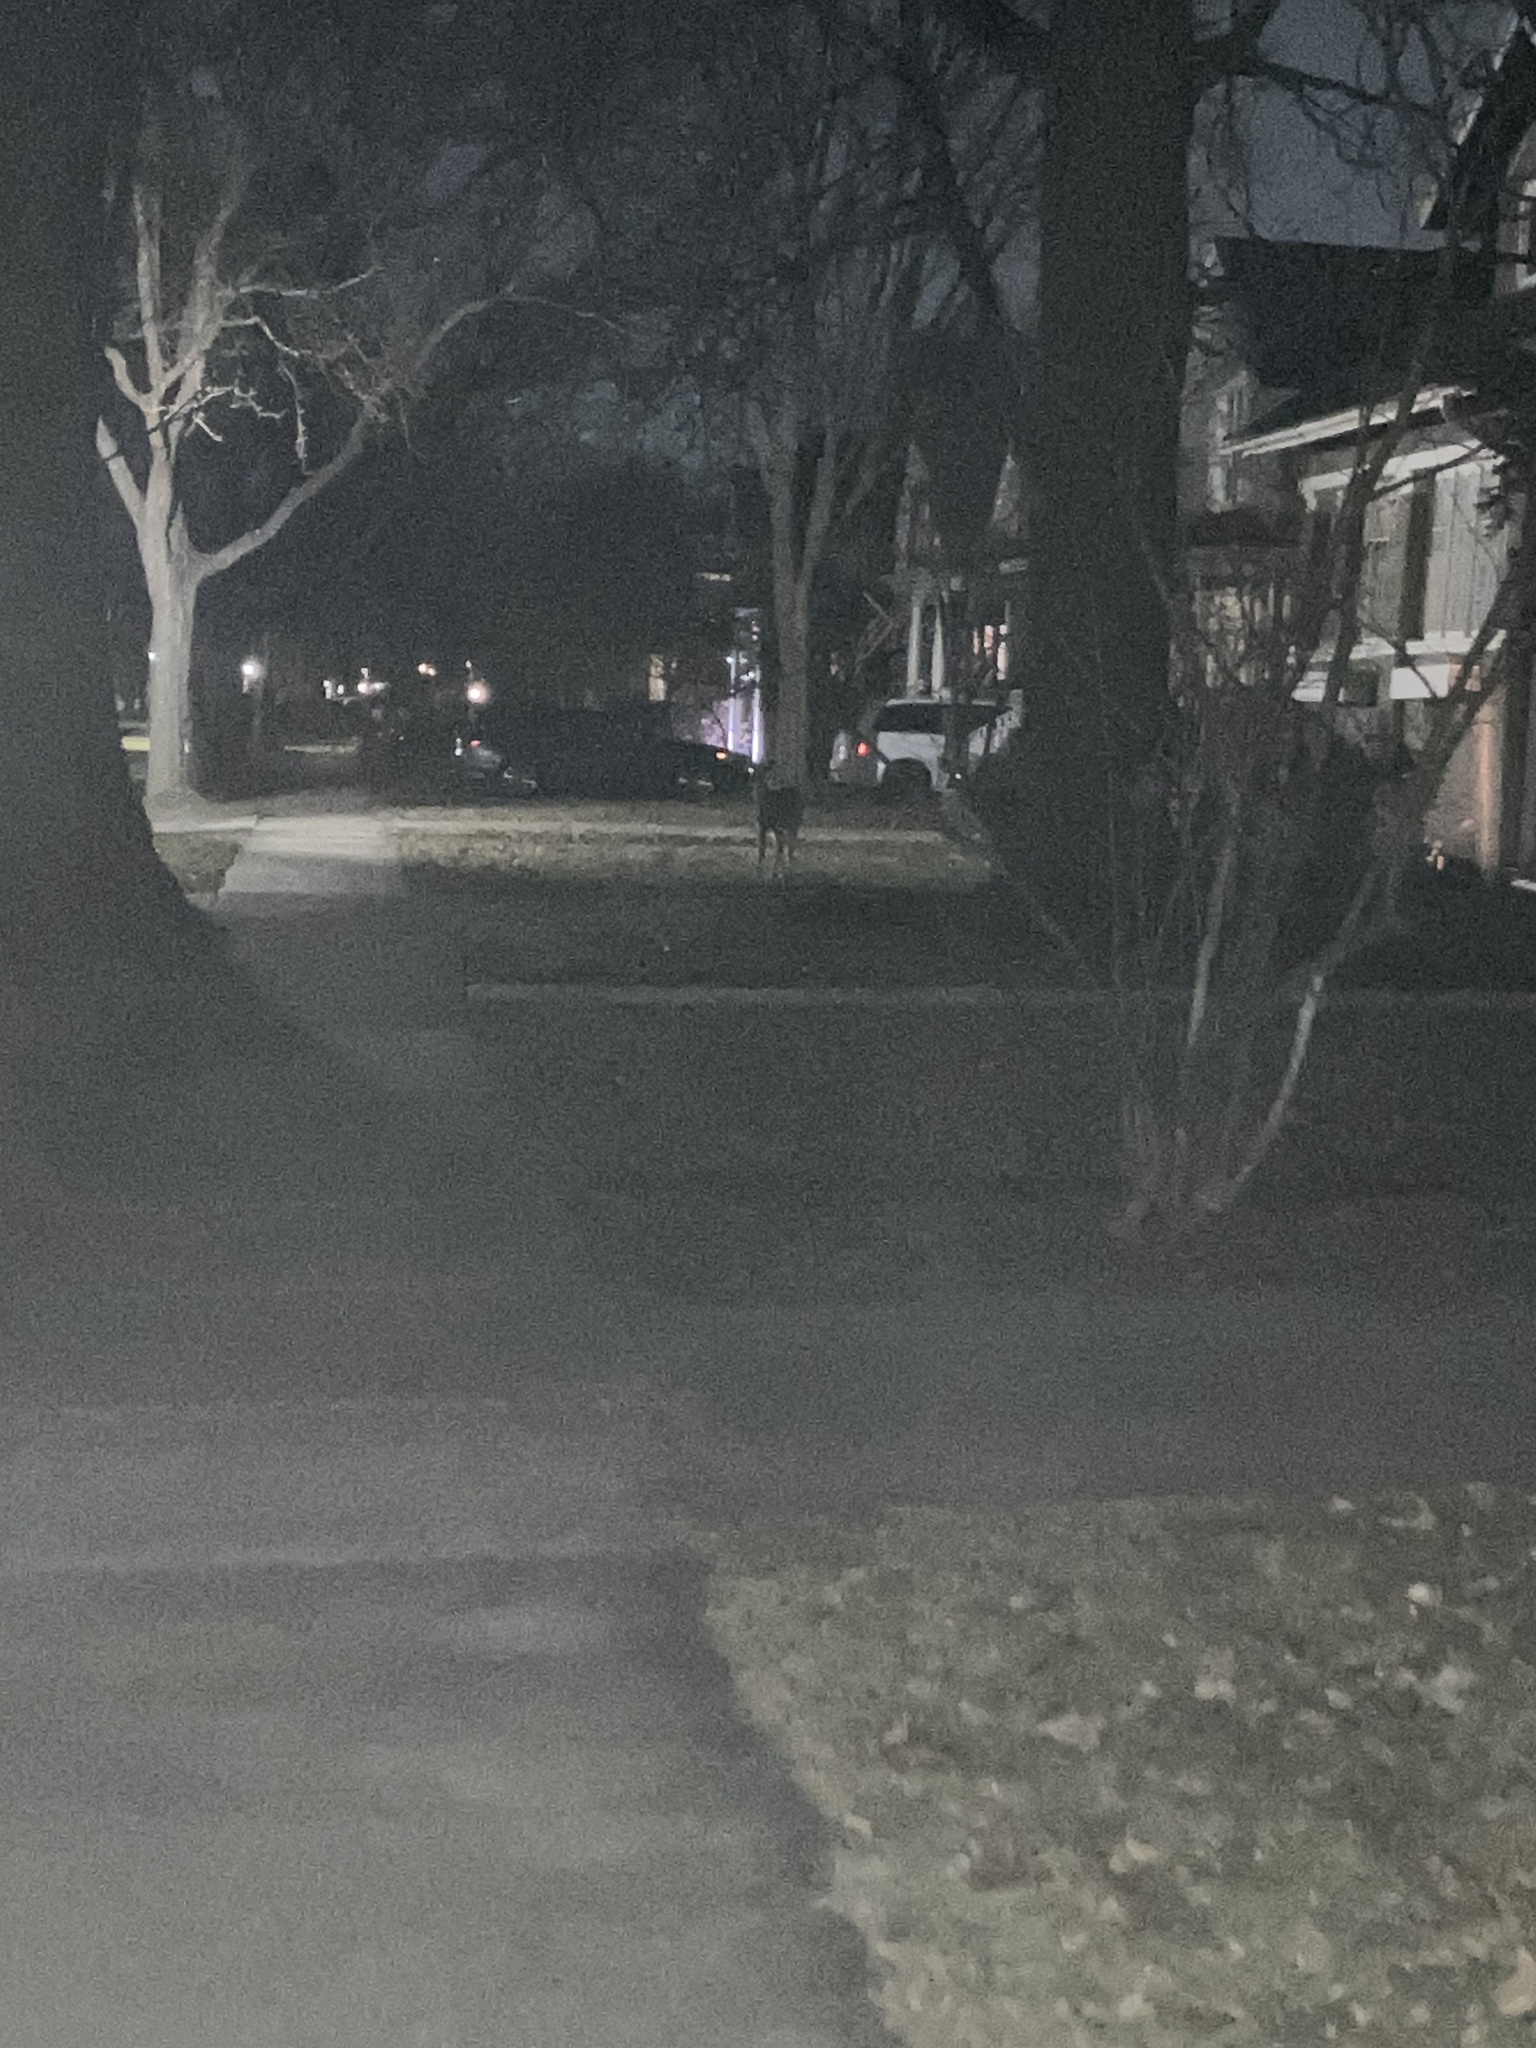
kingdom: Animalia
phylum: Chordata
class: Mammalia
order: Artiodactyla
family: Cervidae
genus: Odocoileus
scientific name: Odocoileus virginianus
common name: White-tailed deer
